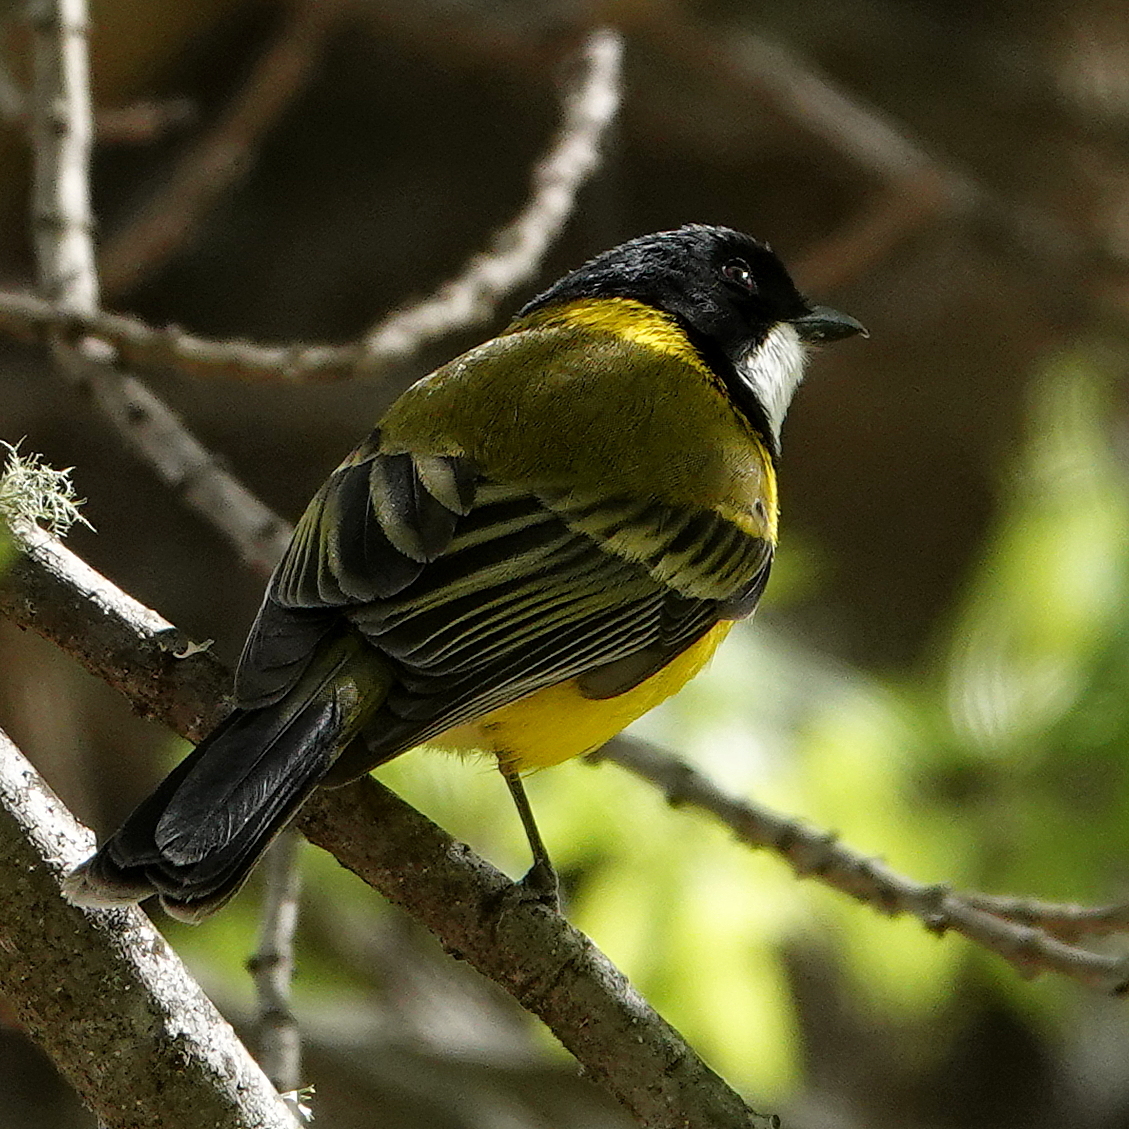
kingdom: Animalia
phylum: Chordata
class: Aves
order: Passeriformes
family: Pachycephalidae
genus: Pachycephala
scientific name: Pachycephala pectoralis
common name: Australian golden whistler
